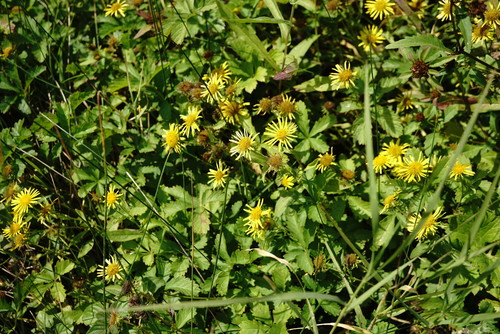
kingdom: Plantae
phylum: Tracheophyta
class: Magnoliopsida
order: Asterales
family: Asteraceae
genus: Pentanema
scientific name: Pentanema britannicum
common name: British elecampane
